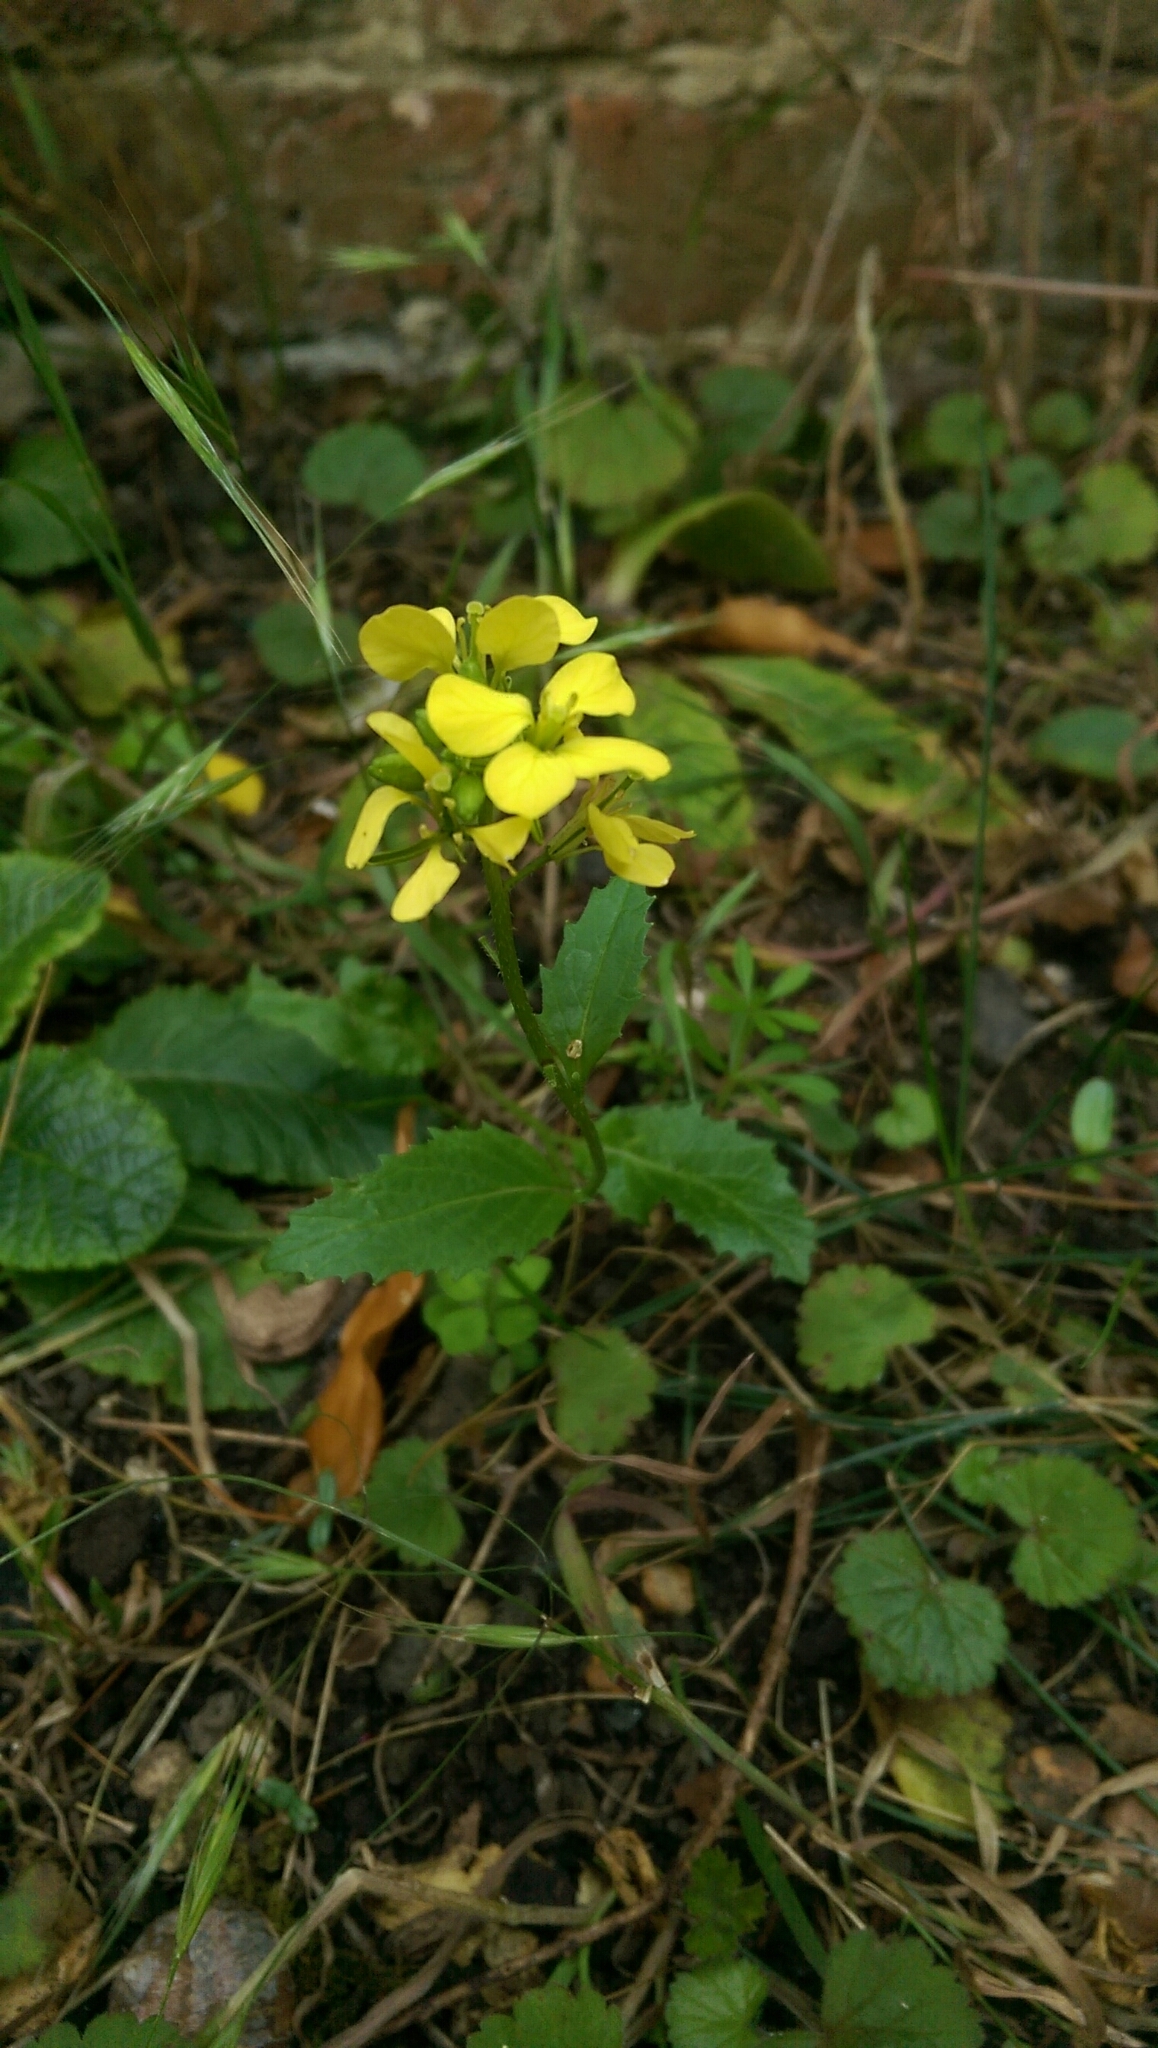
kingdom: Plantae
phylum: Tracheophyta
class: Magnoliopsida
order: Brassicales
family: Brassicaceae
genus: Sinapis
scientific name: Sinapis arvensis
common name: Charlock
